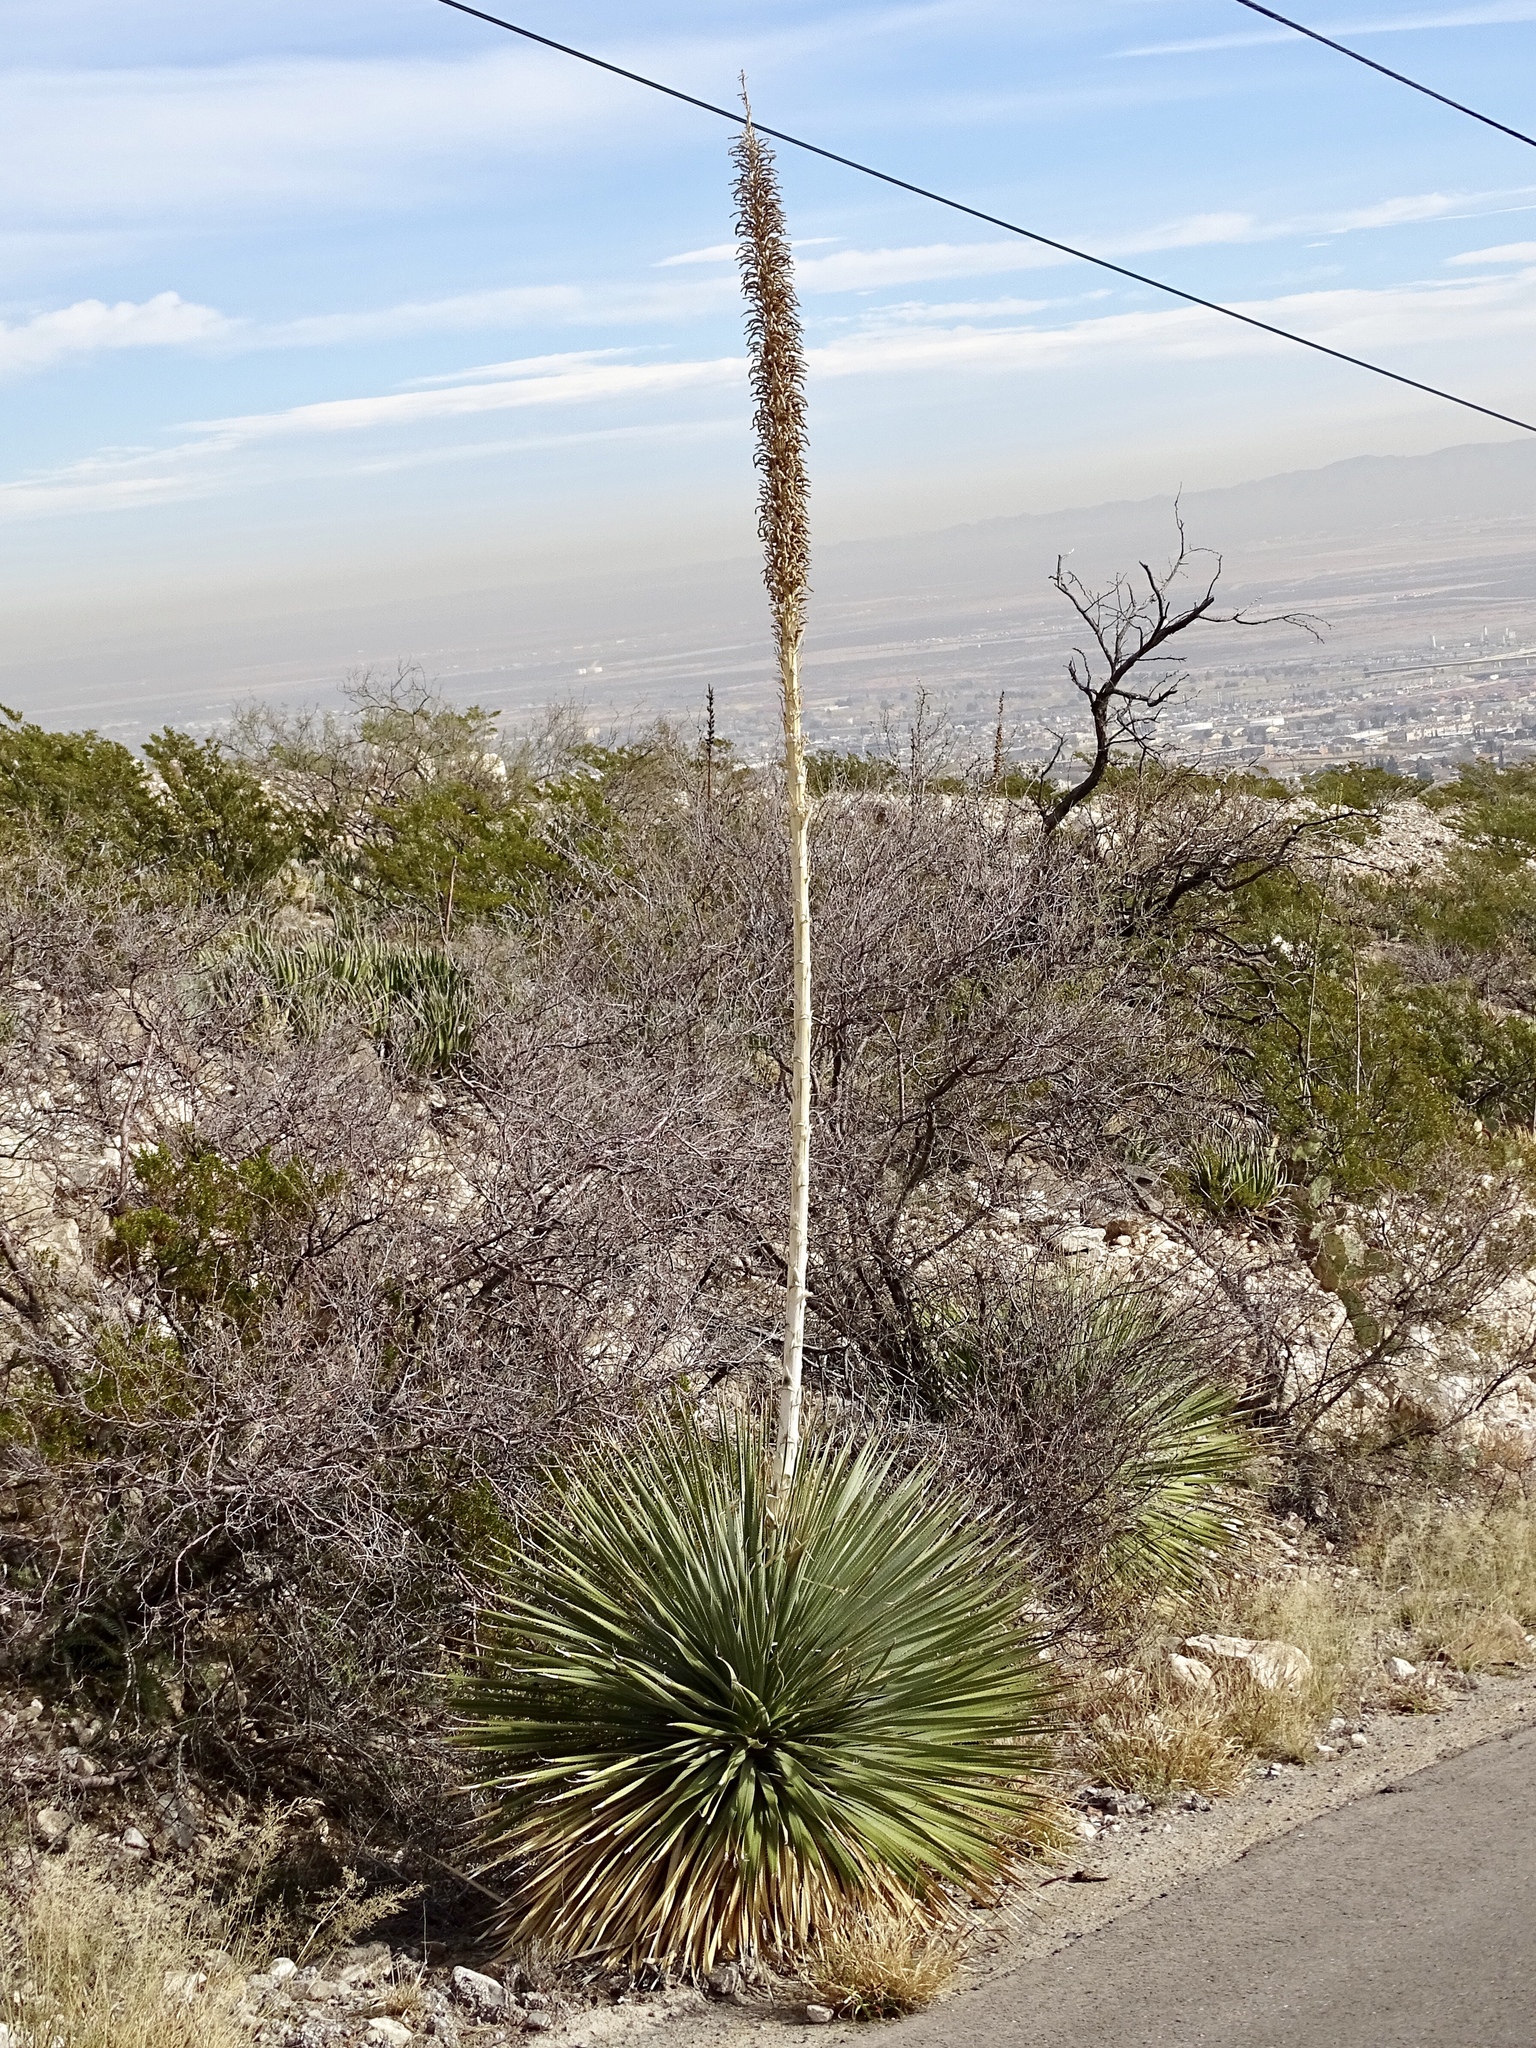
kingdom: Plantae
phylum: Tracheophyta
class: Liliopsida
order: Asparagales
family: Asparagaceae
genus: Dasylirion
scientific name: Dasylirion wheeleri
